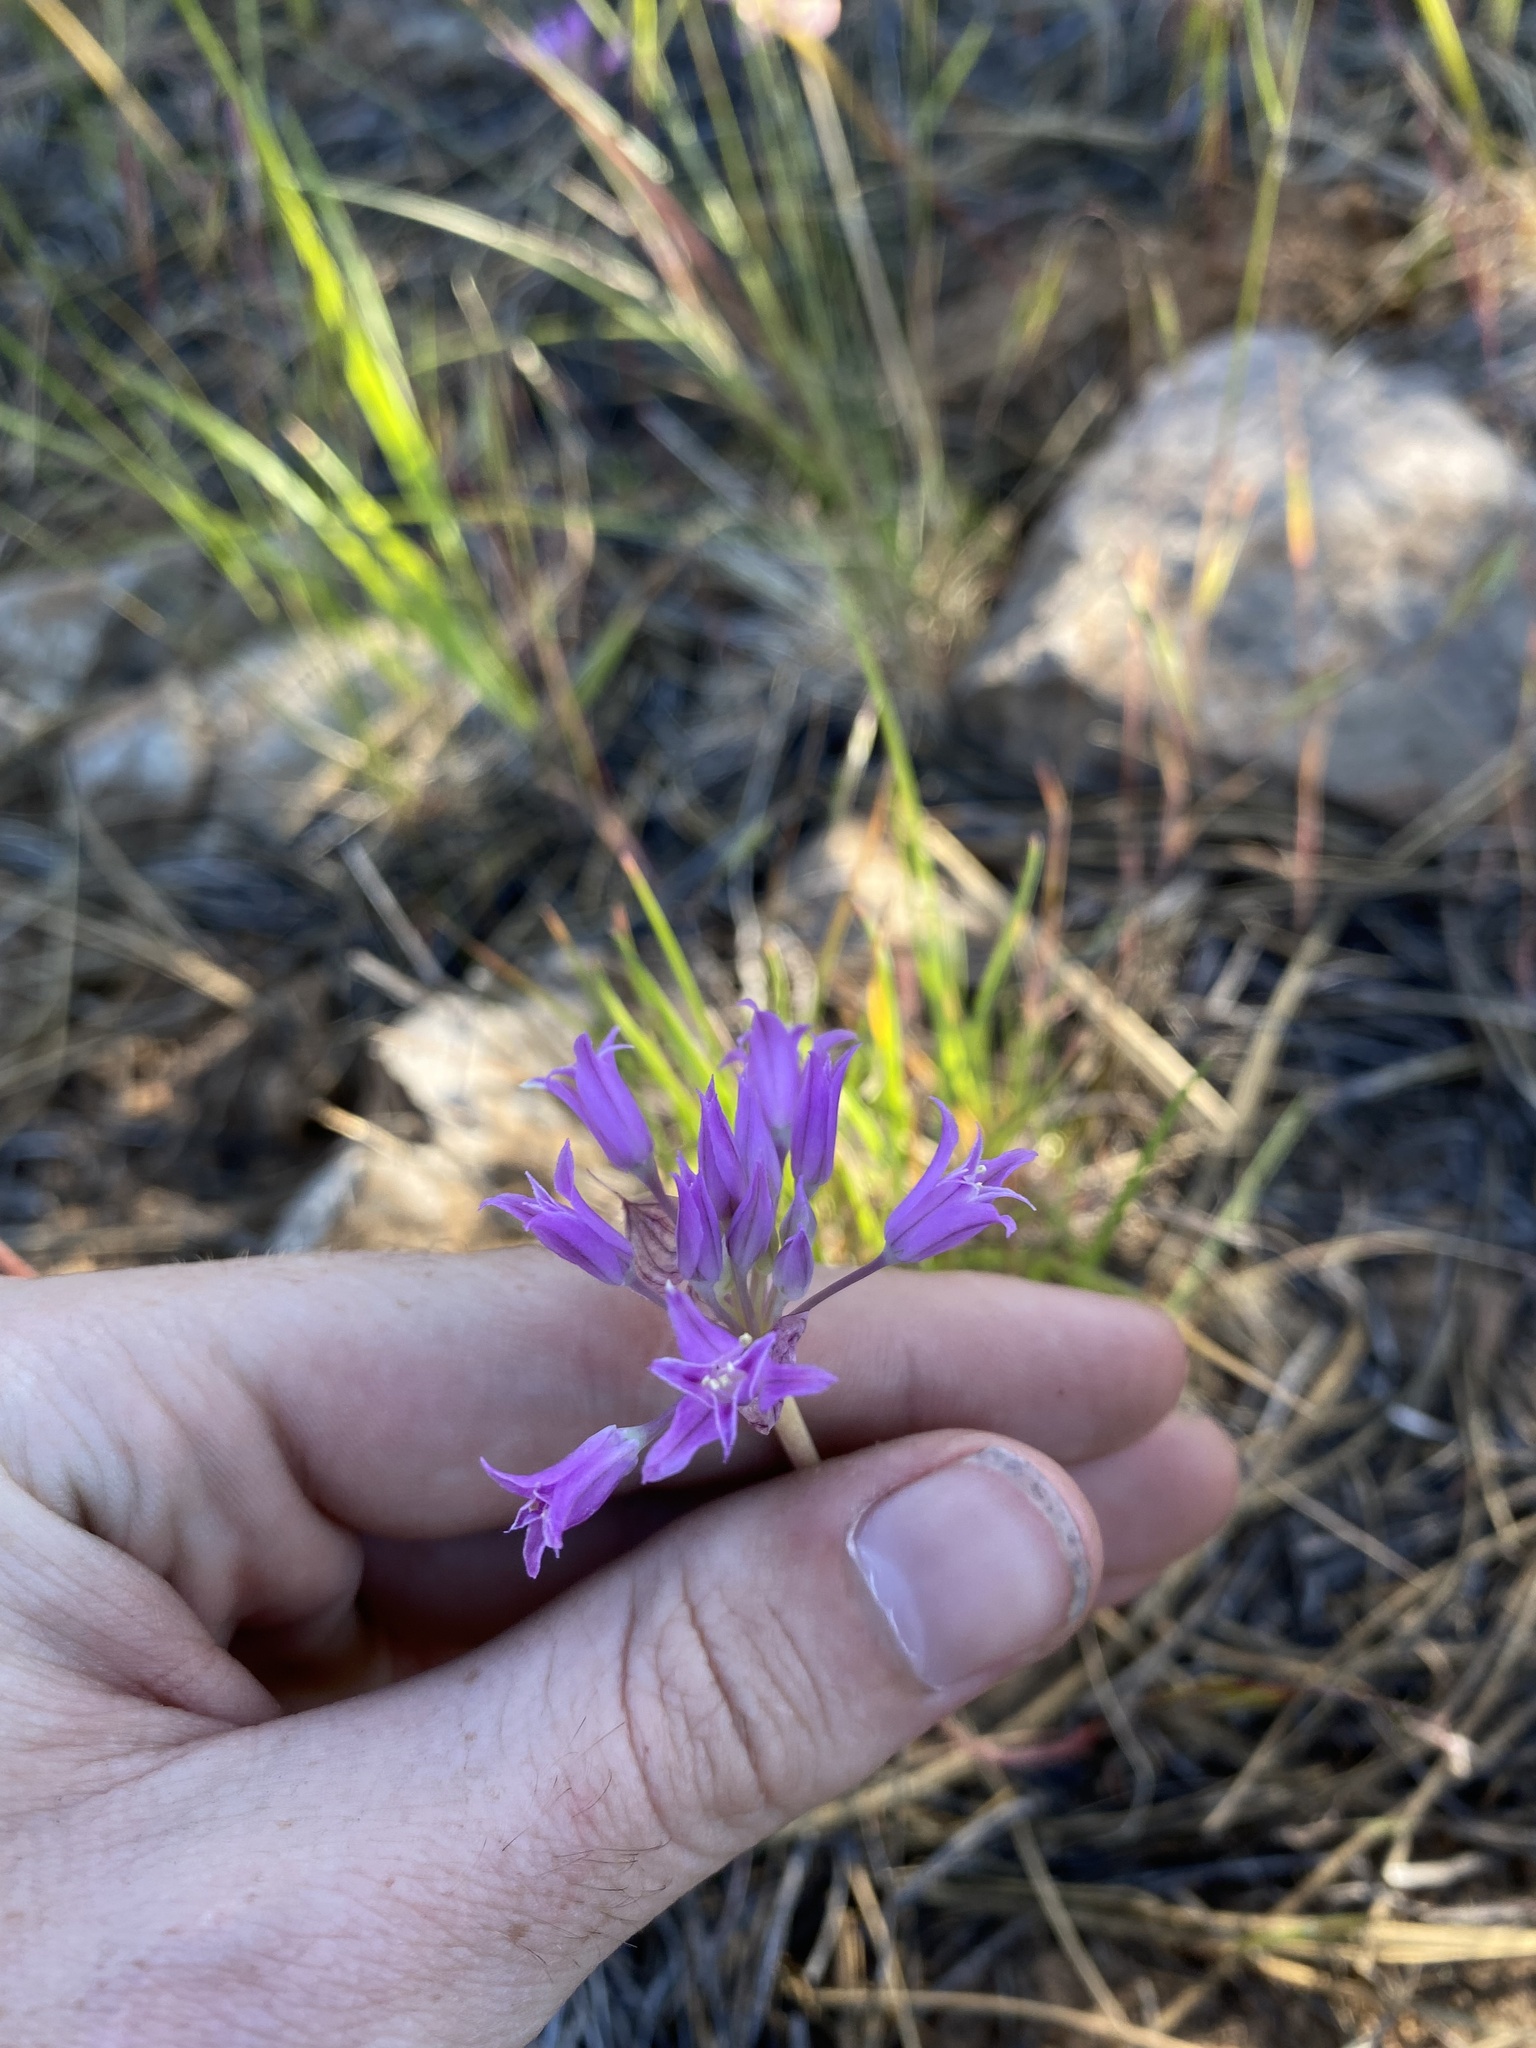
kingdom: Plantae
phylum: Tracheophyta
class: Liliopsida
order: Asparagales
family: Amaryllidaceae
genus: Allium
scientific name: Allium acuminatum
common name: Hooker's onion
